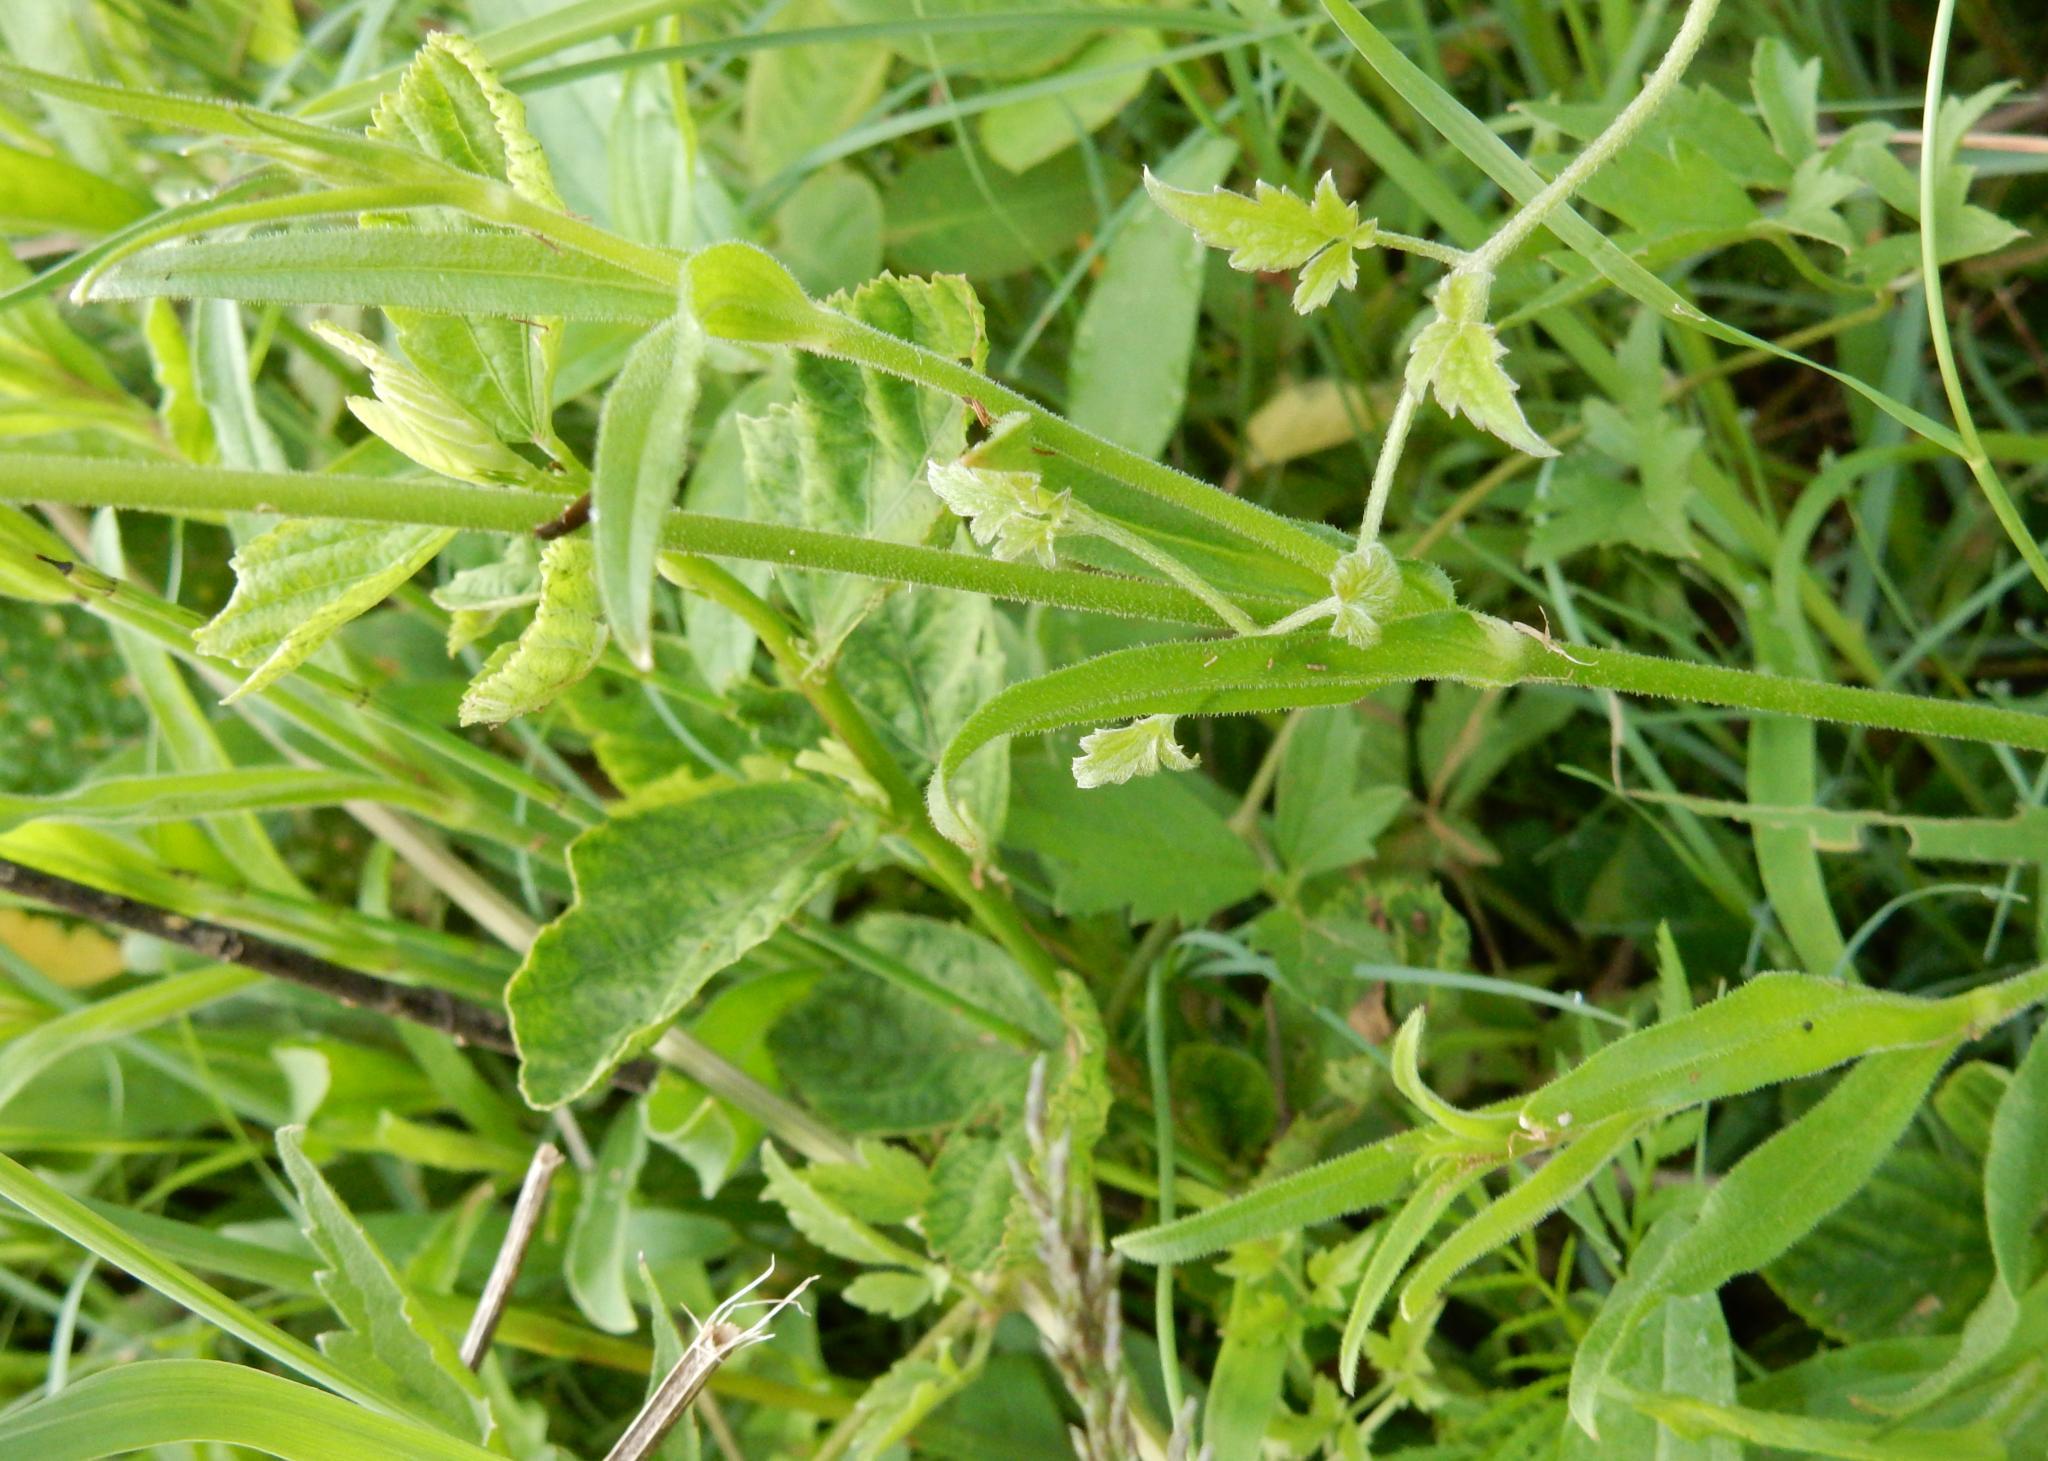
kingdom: Plantae
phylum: Tracheophyta
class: Magnoliopsida
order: Caryophyllales
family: Caryophyllaceae
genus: Silene
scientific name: Silene undulata
